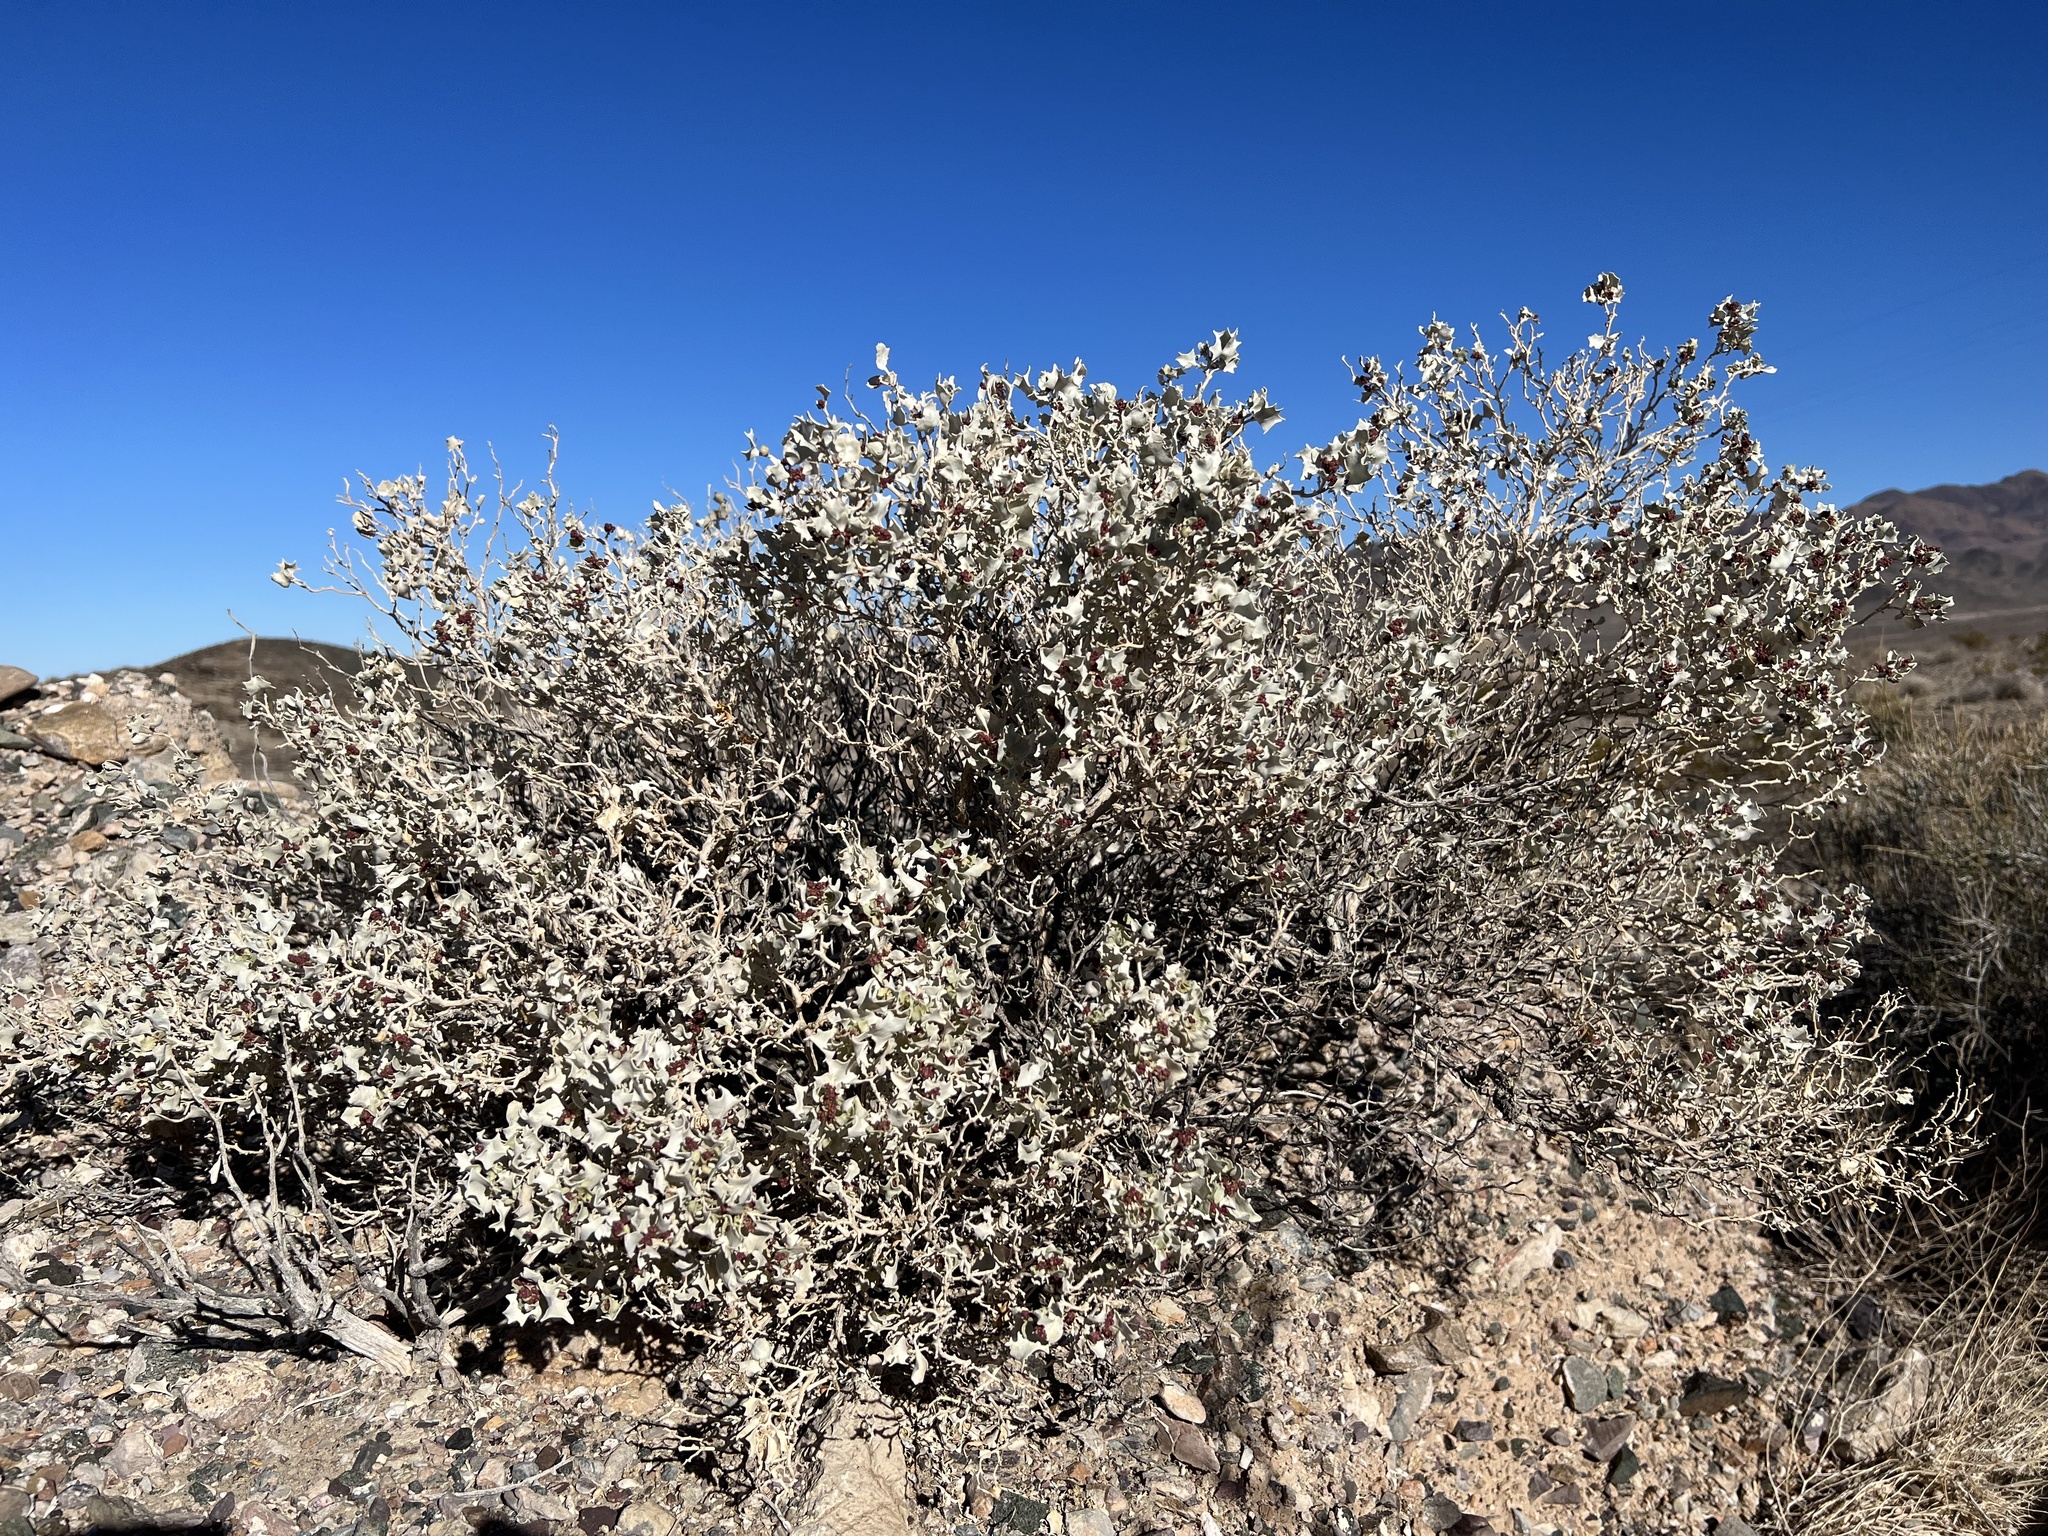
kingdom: Plantae
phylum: Tracheophyta
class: Magnoliopsida
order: Caryophyllales
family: Amaranthaceae
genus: Atriplex
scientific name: Atriplex hymenelytra
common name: Desert-holly
